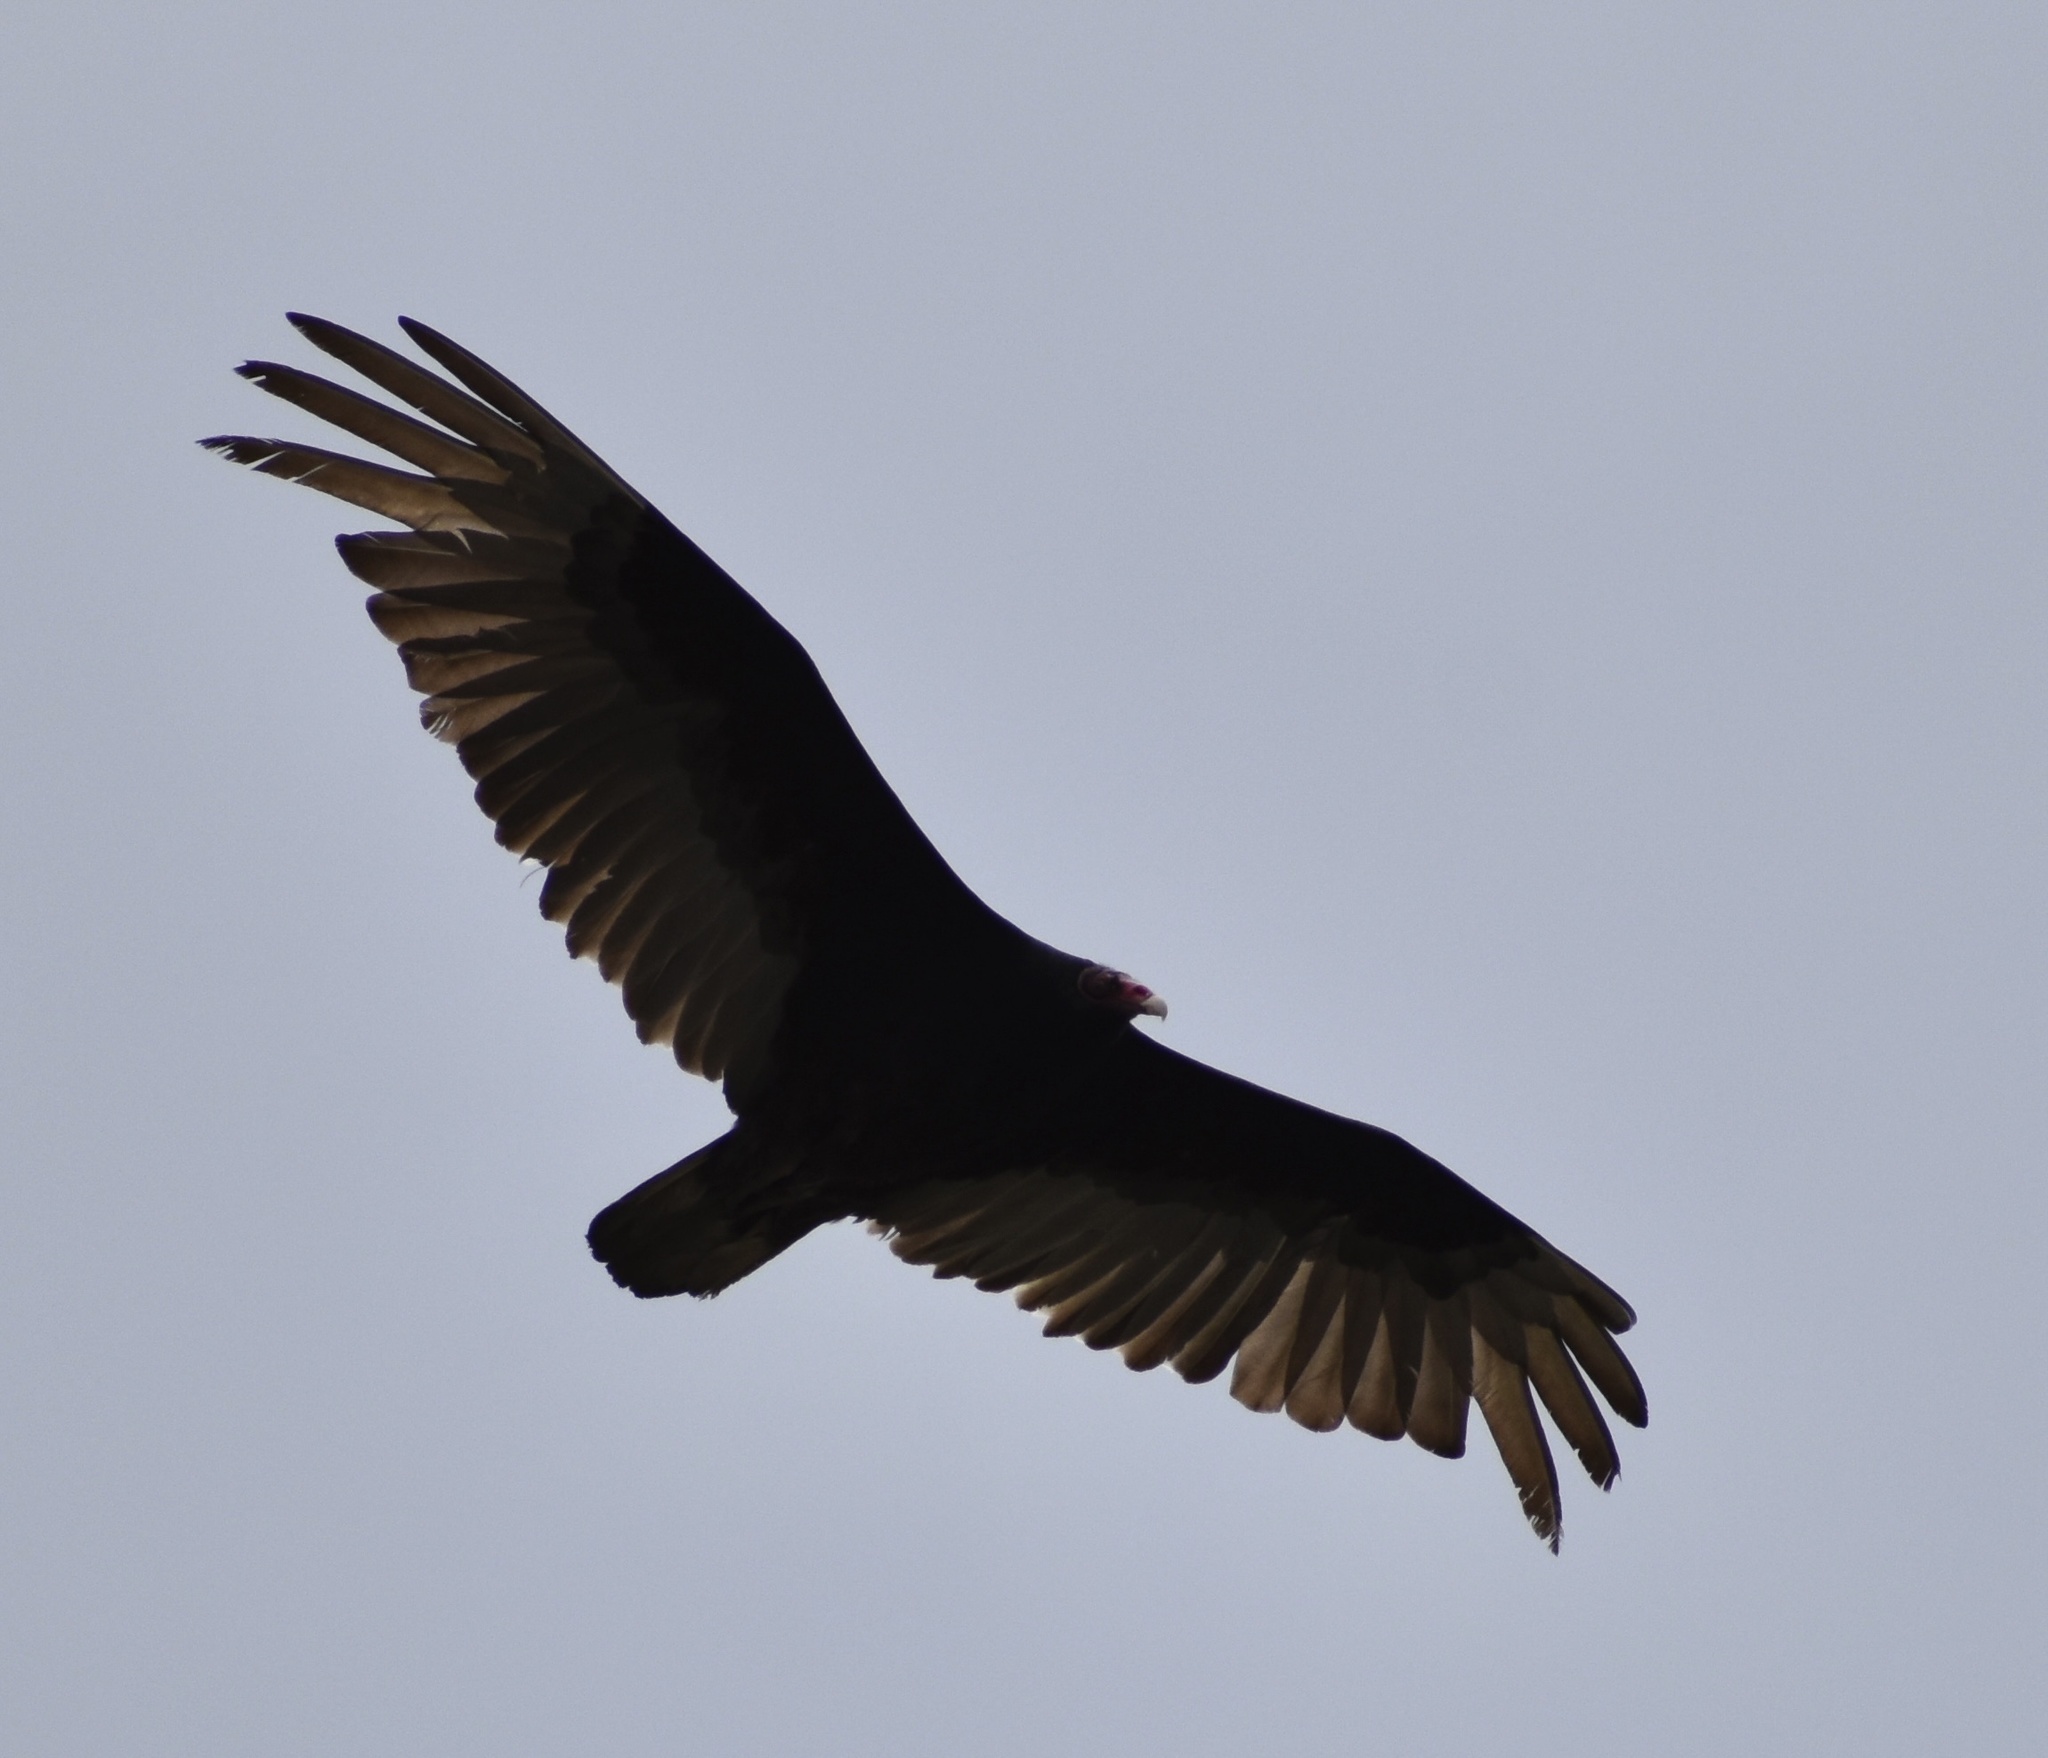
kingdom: Animalia
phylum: Chordata
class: Aves
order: Accipitriformes
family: Cathartidae
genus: Cathartes
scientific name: Cathartes aura
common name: Turkey vulture
